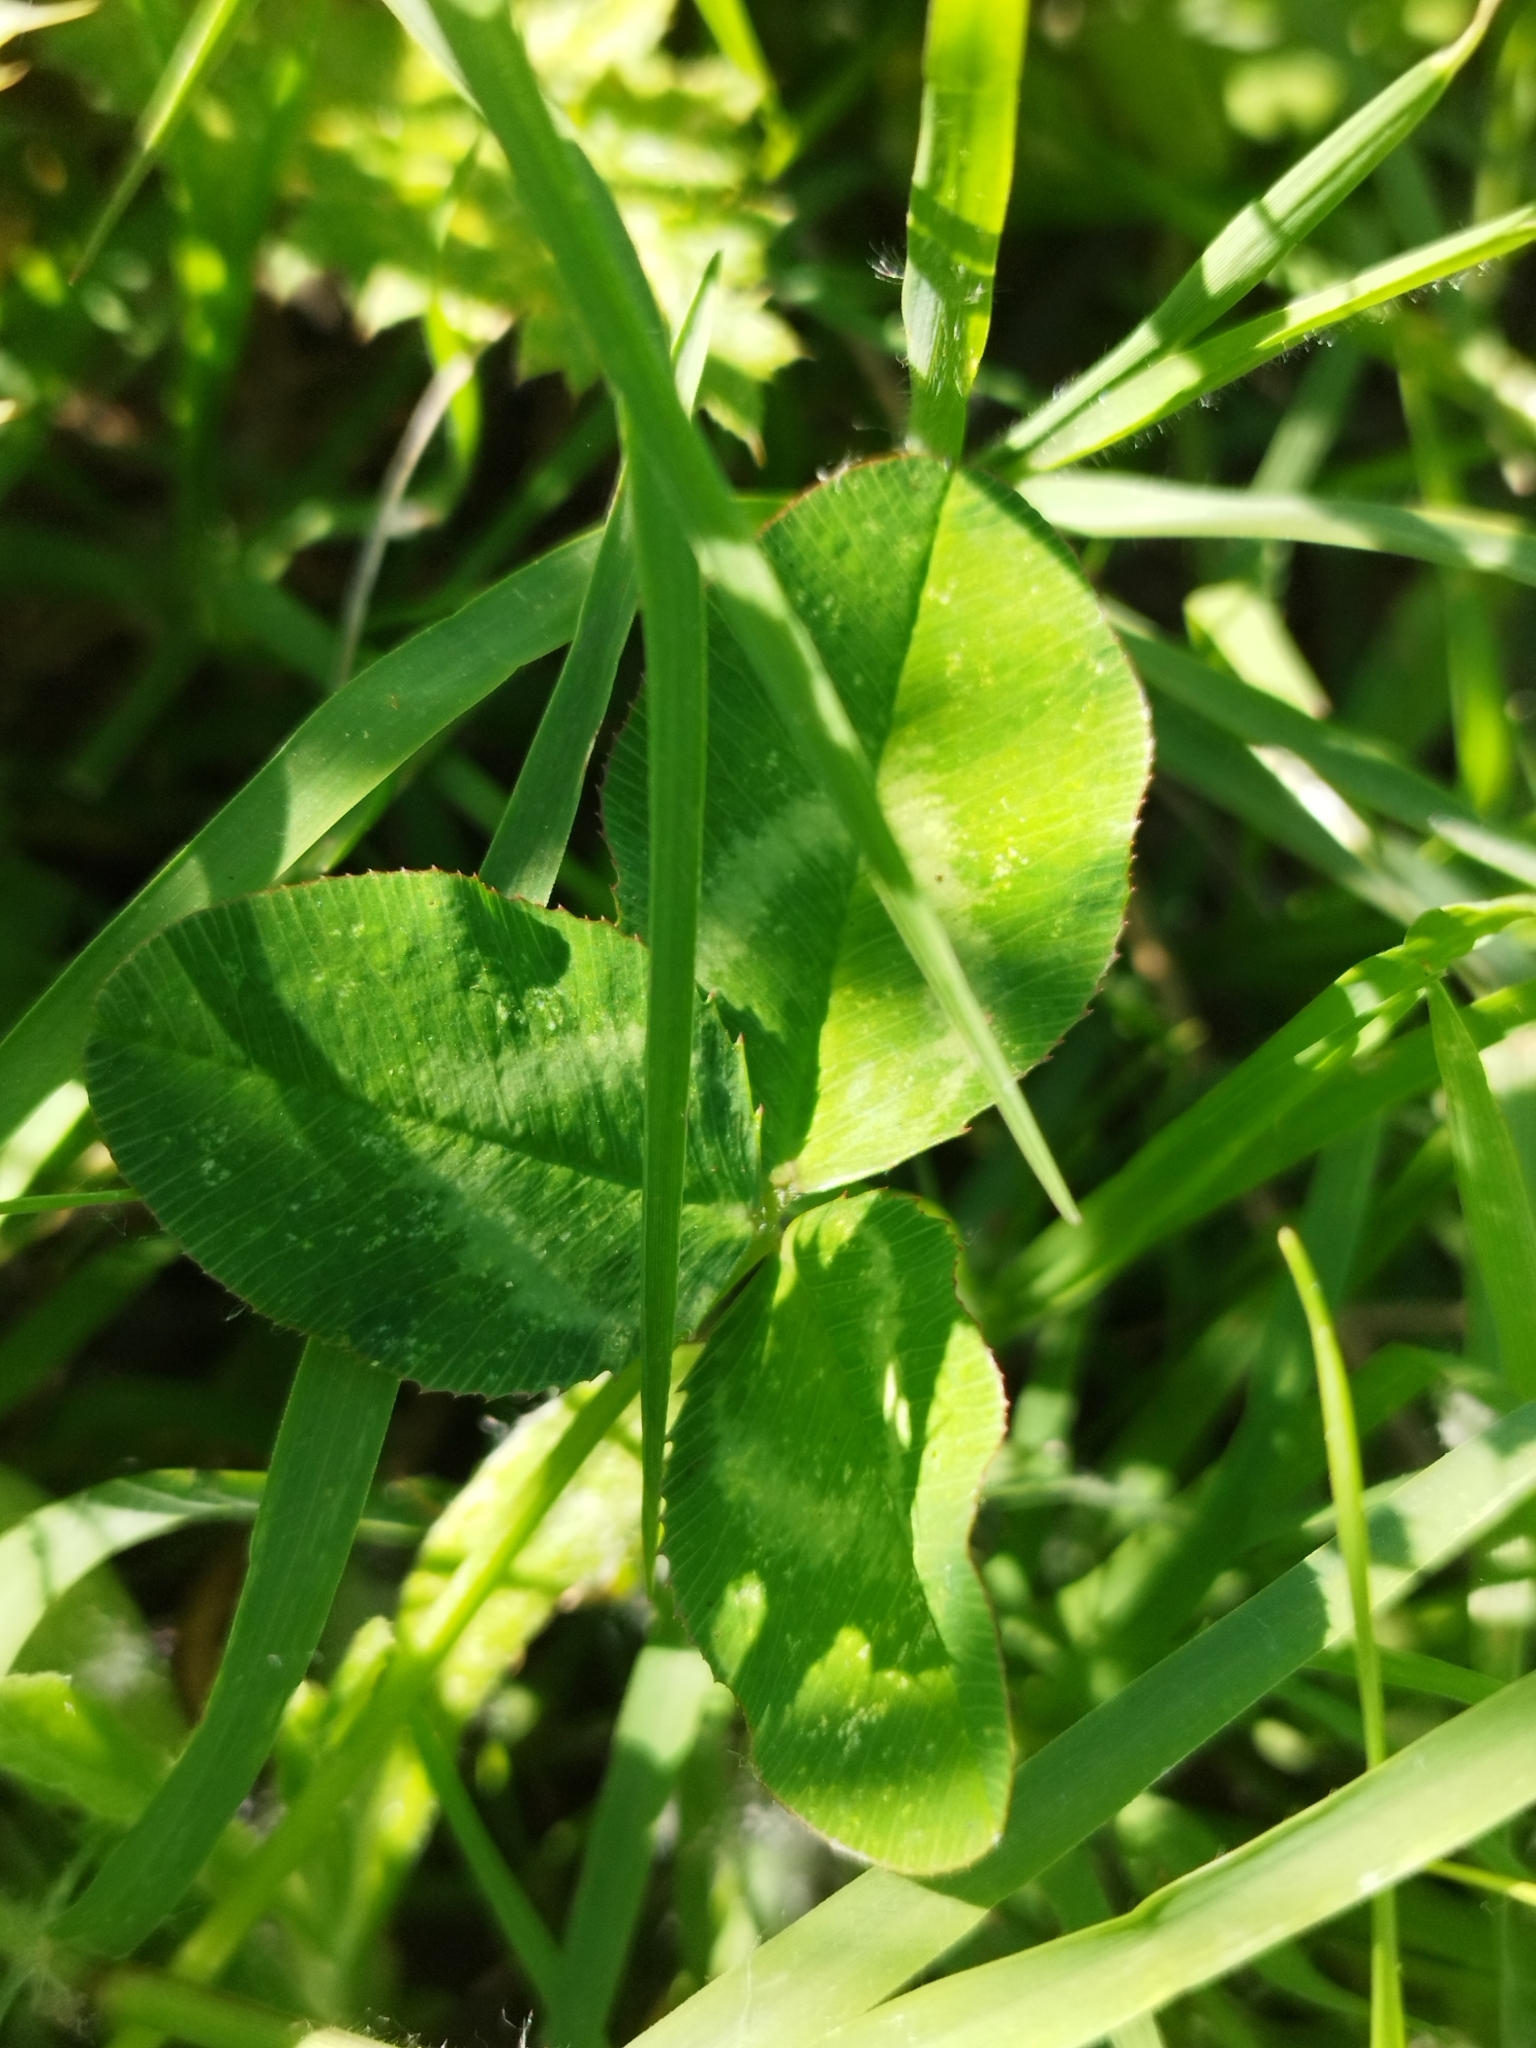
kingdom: Plantae
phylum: Tracheophyta
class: Magnoliopsida
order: Fabales
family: Fabaceae
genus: Trifolium
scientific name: Trifolium repens
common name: White clover
